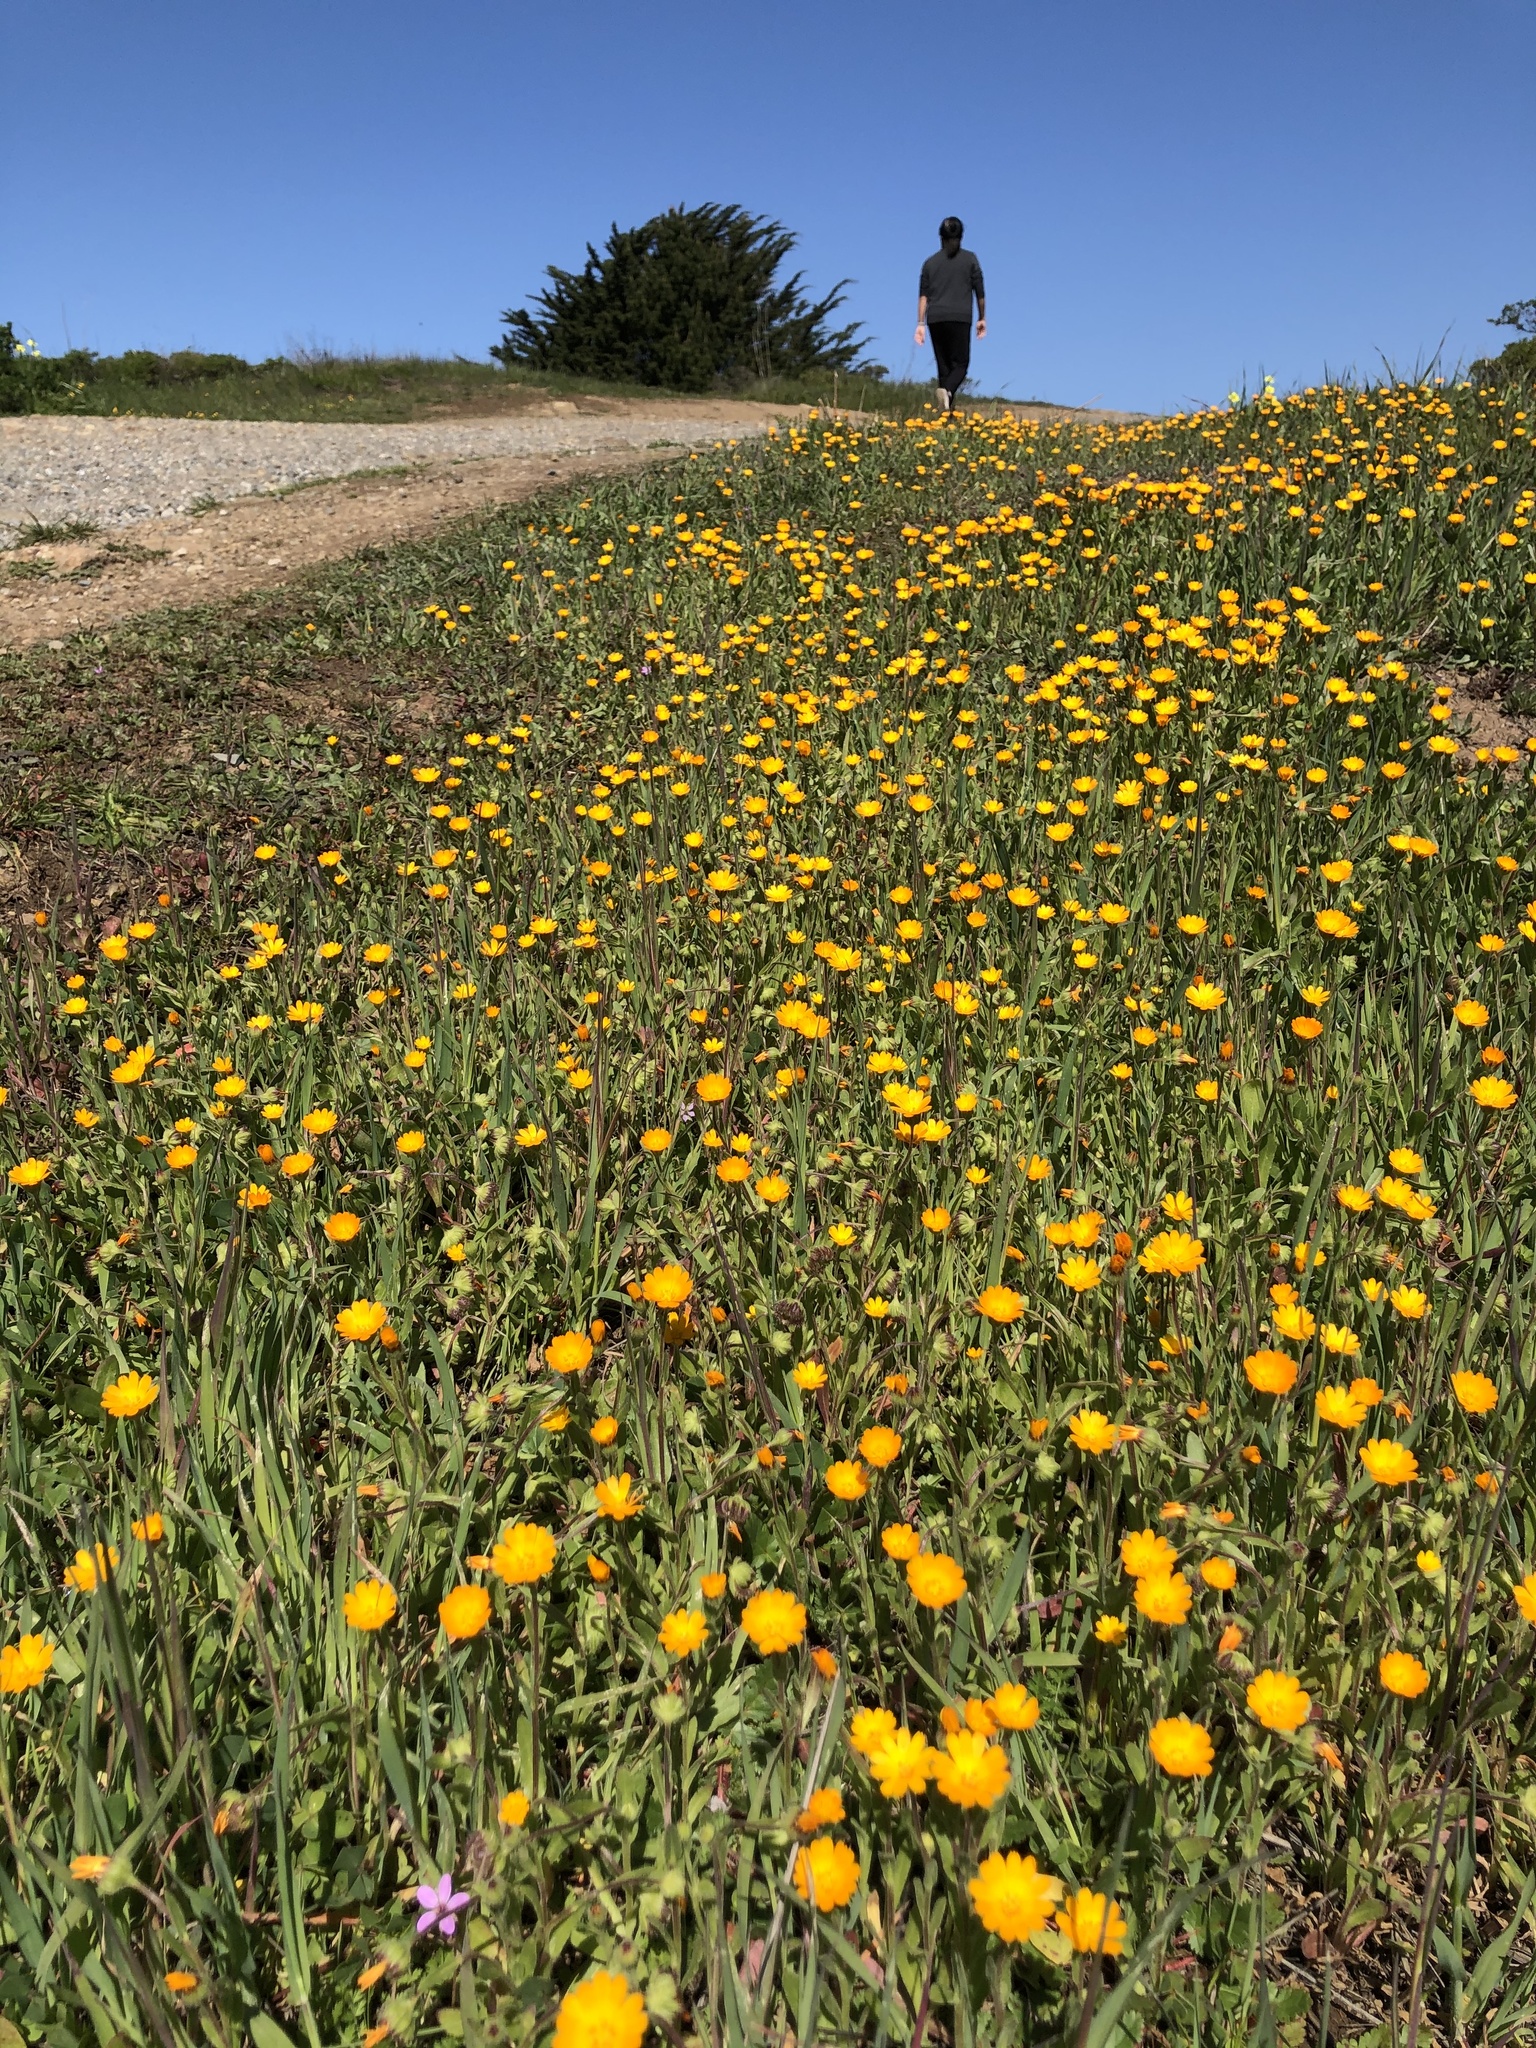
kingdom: Plantae
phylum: Tracheophyta
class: Magnoliopsida
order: Asterales
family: Asteraceae
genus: Calendula
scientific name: Calendula arvensis
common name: Field marigold
